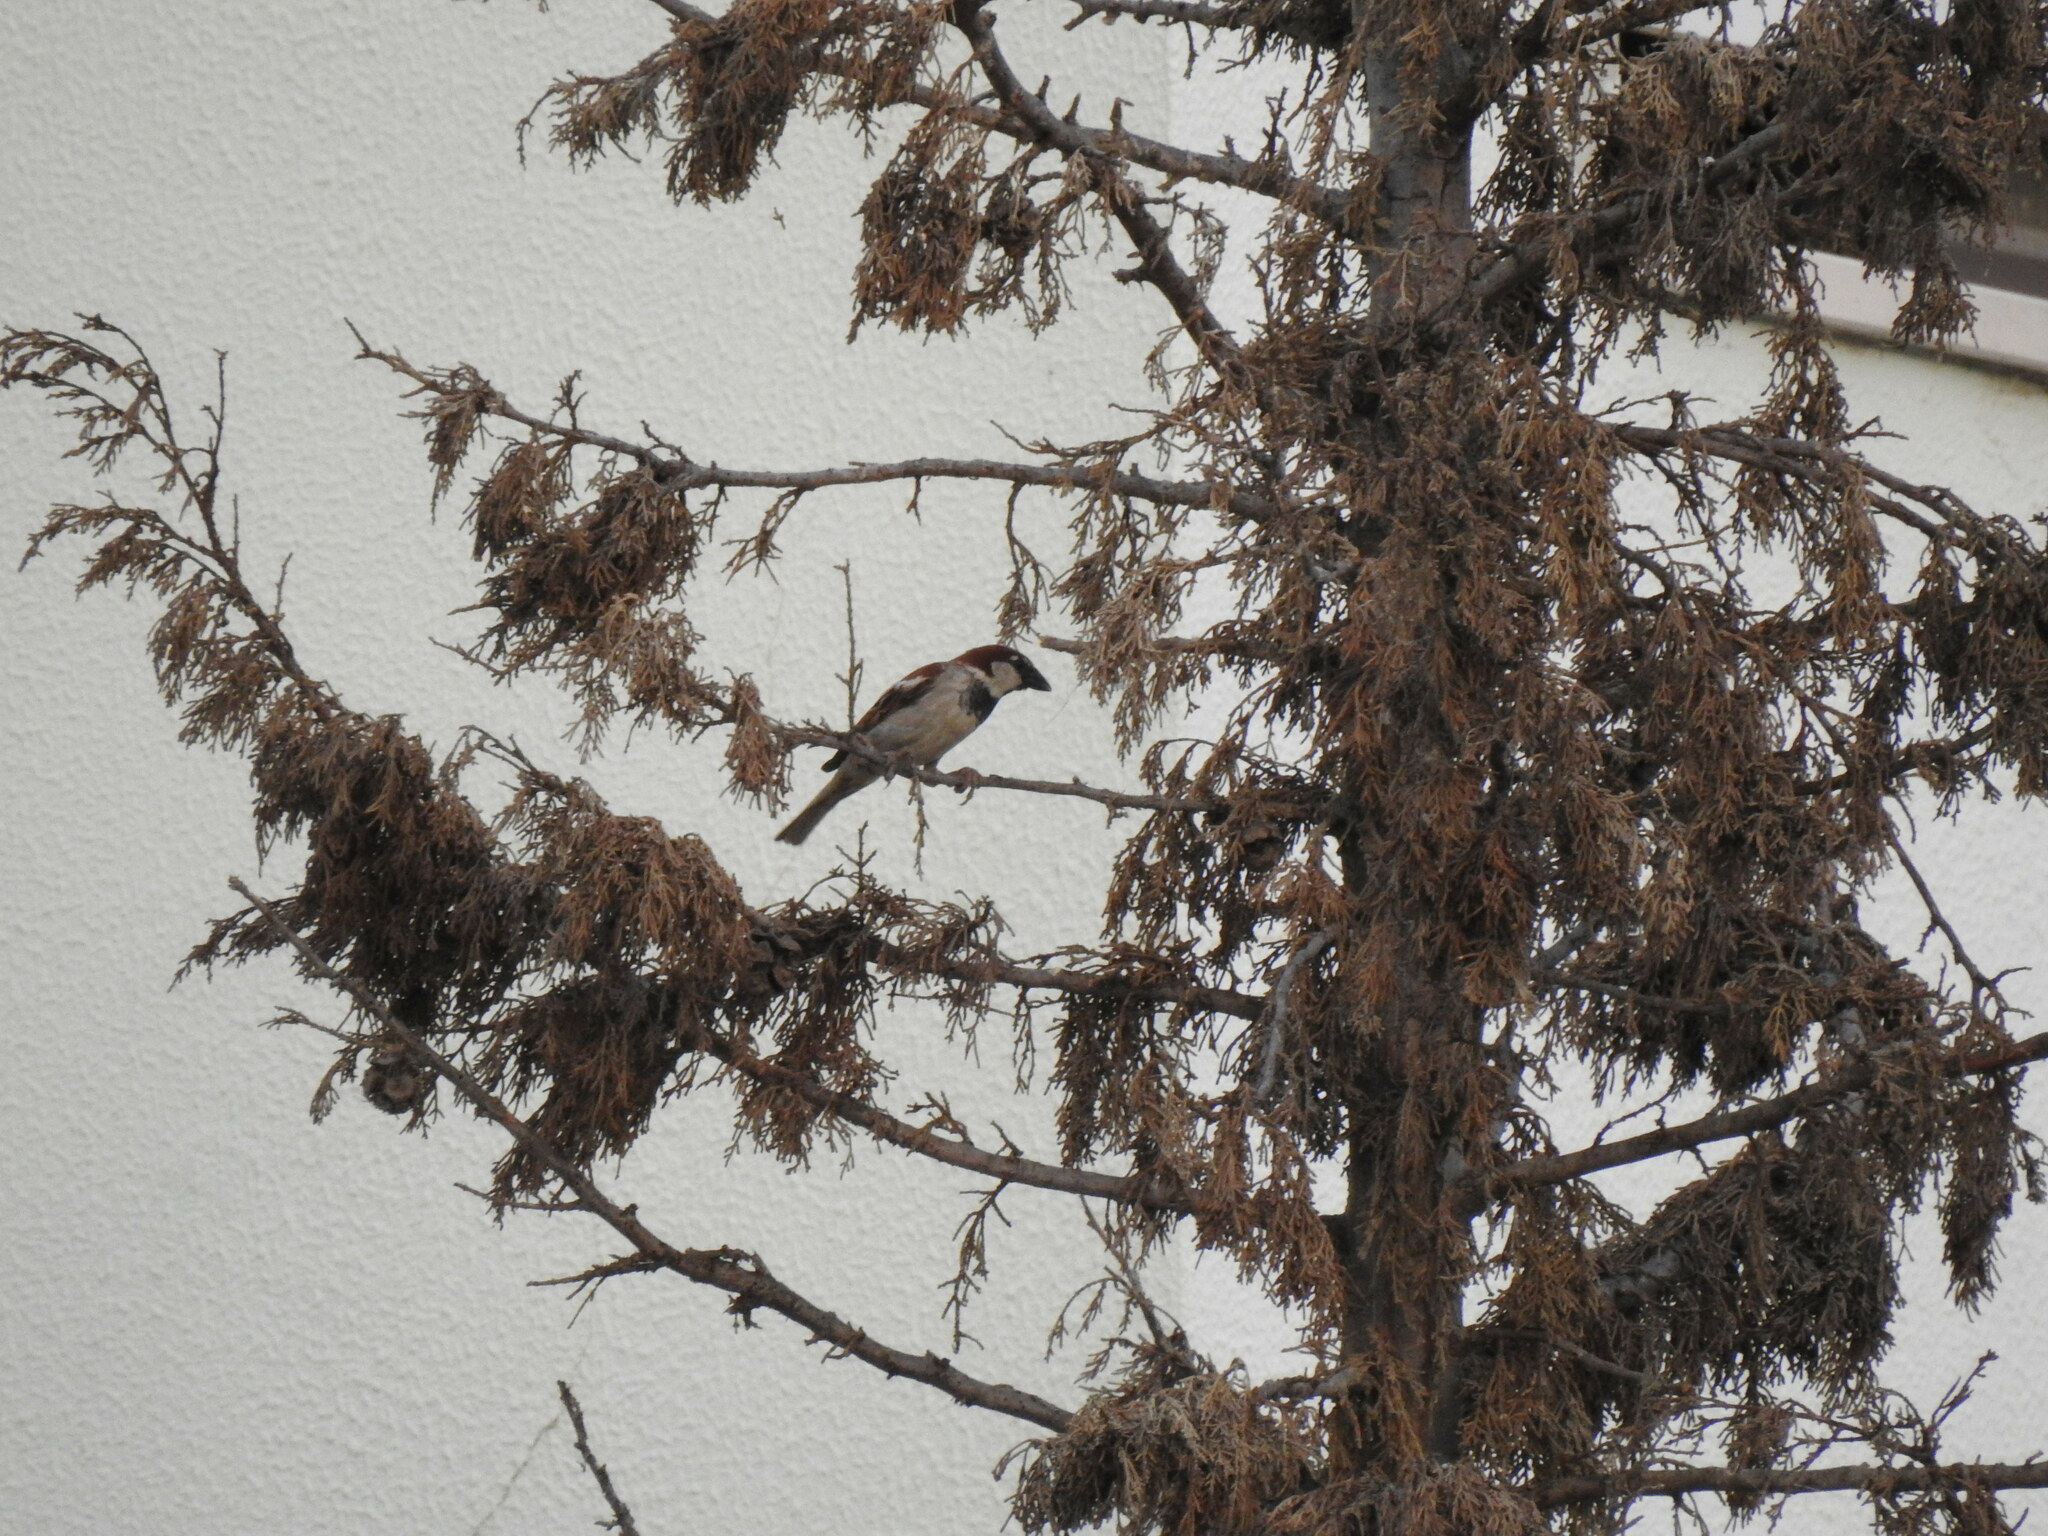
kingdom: Animalia
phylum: Chordata
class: Aves
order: Passeriformes
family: Passeridae
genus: Passer
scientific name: Passer domesticus
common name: House sparrow
